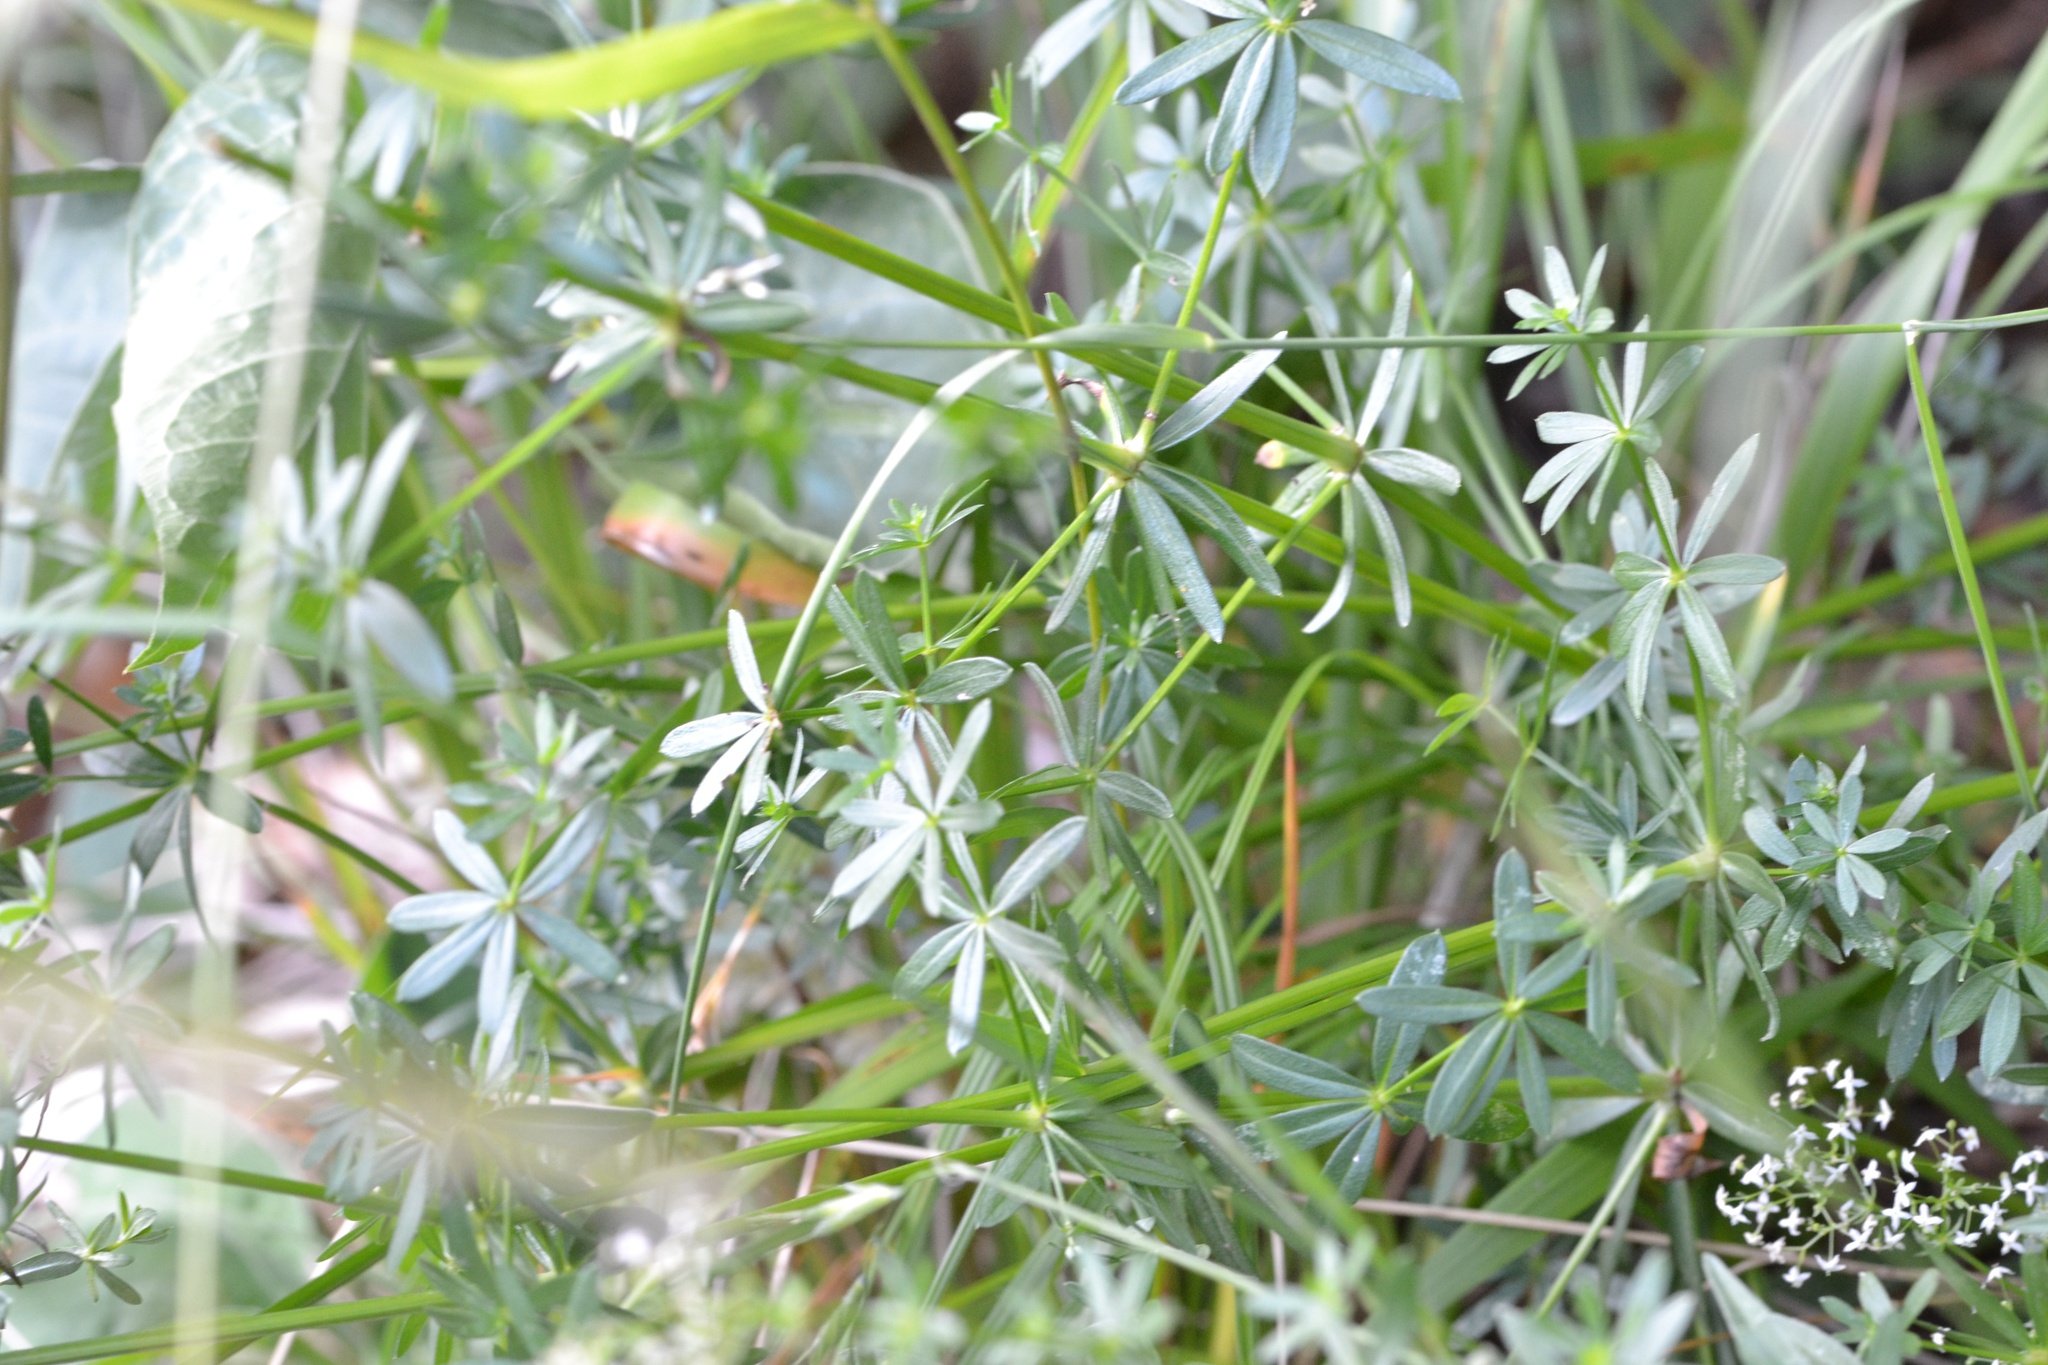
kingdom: Plantae
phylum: Tracheophyta
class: Magnoliopsida
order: Gentianales
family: Rubiaceae
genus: Galium
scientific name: Galium album
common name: White bedstraw
